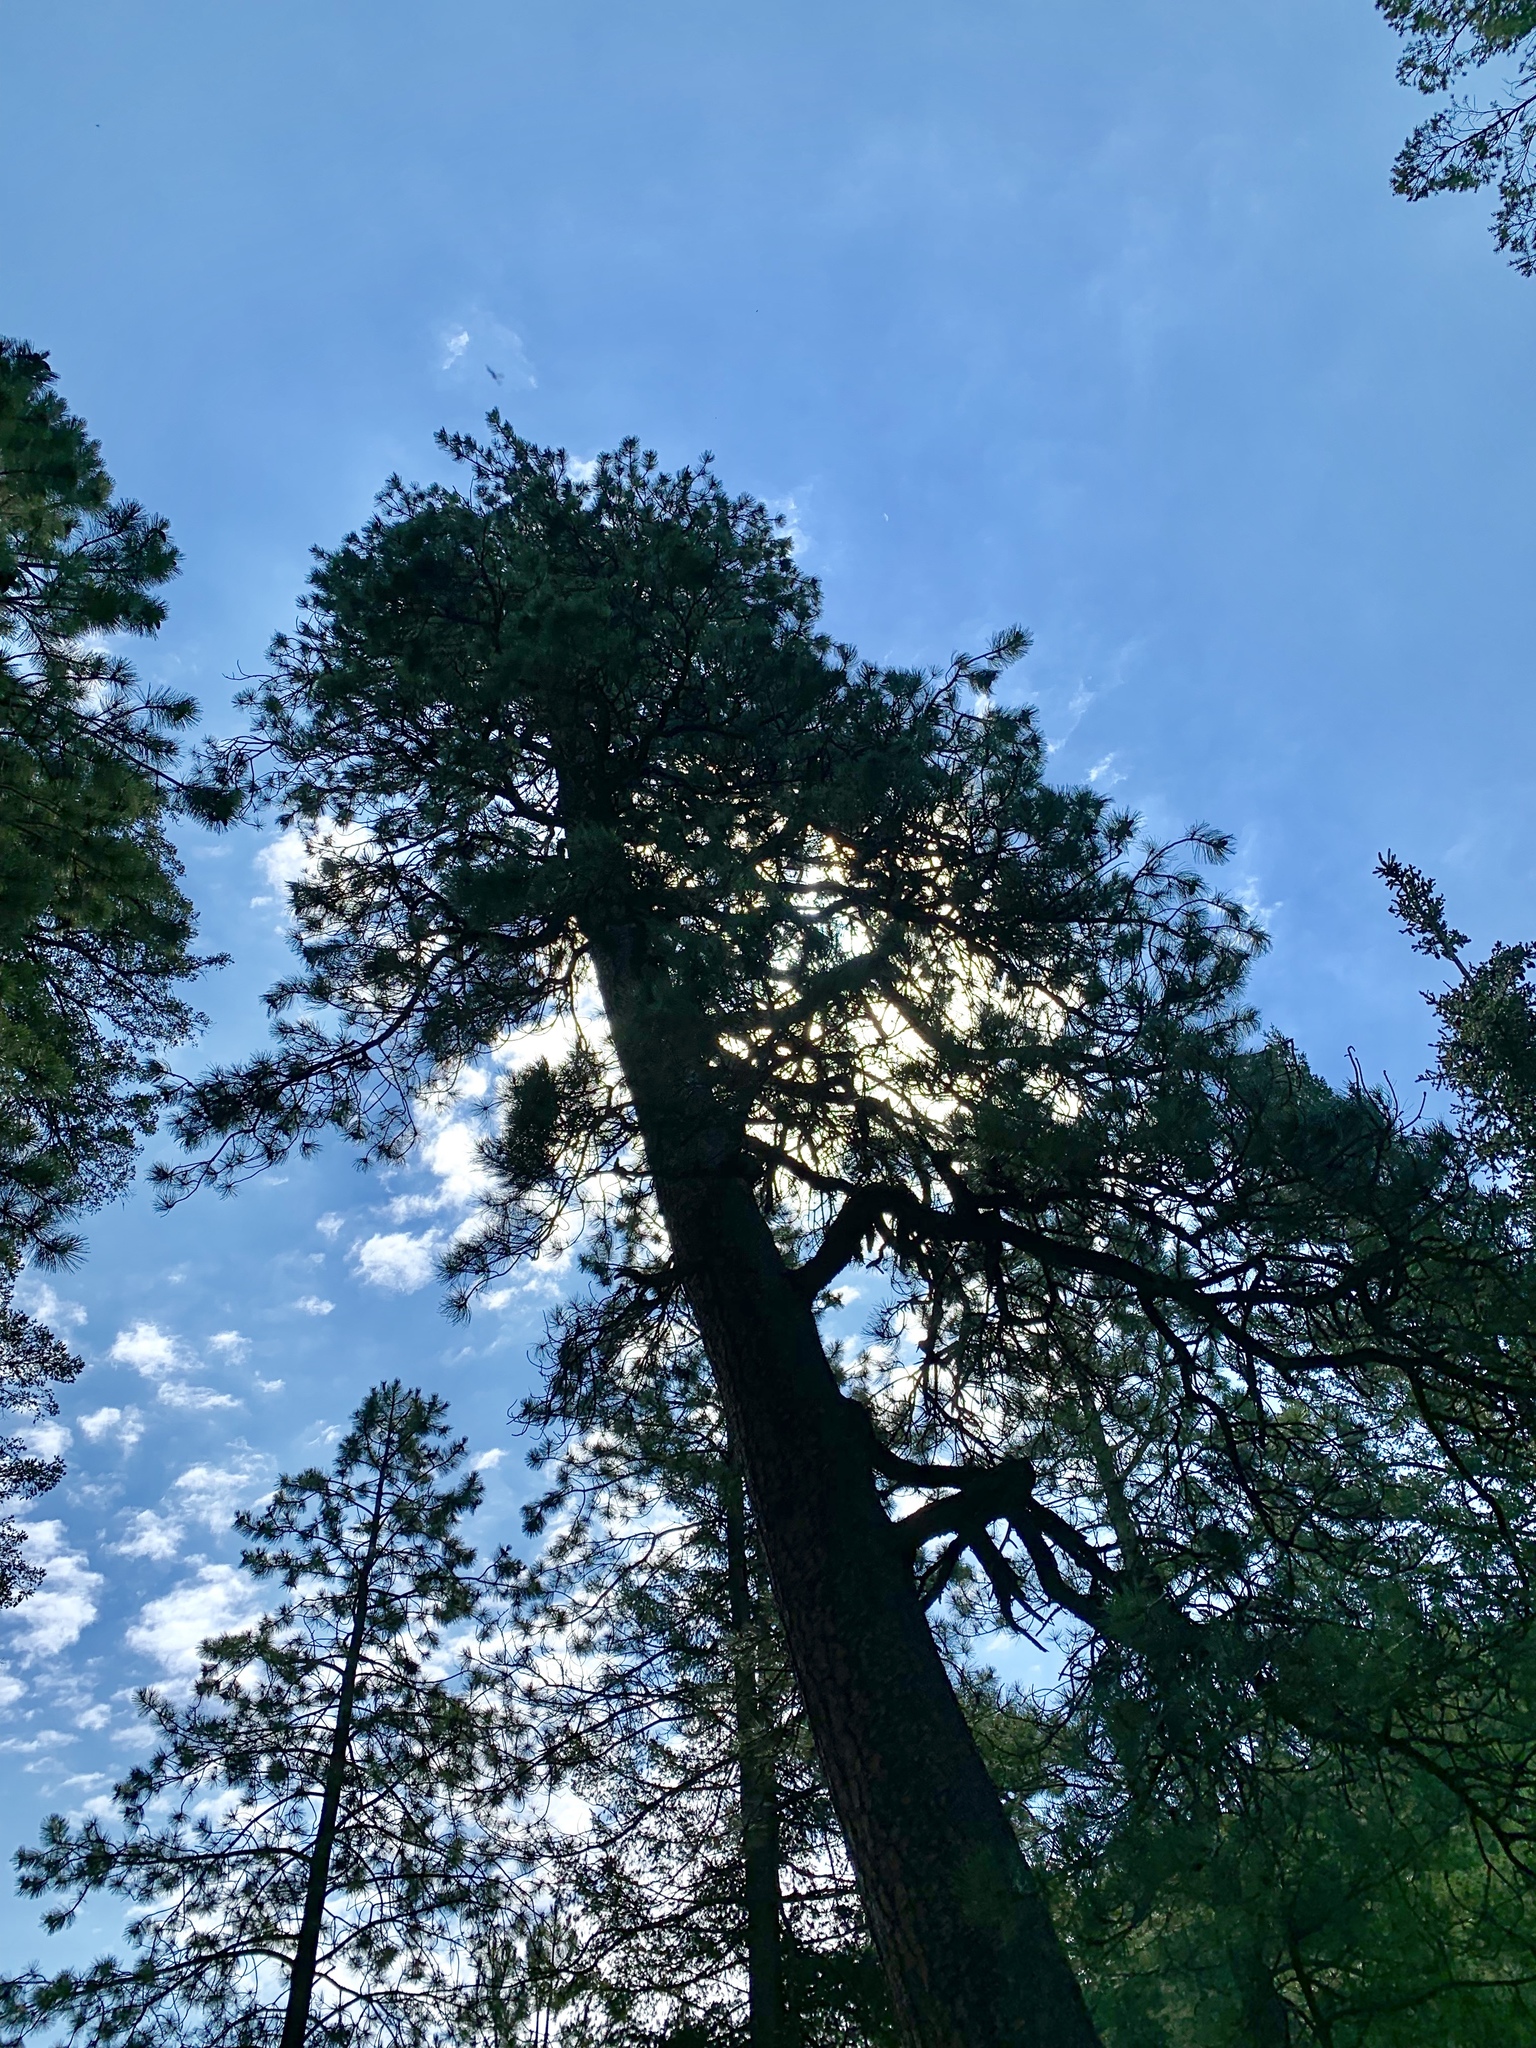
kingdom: Plantae
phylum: Tracheophyta
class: Pinopsida
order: Pinales
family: Pinaceae
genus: Pinus
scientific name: Pinus ponderosa
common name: Western yellow-pine
